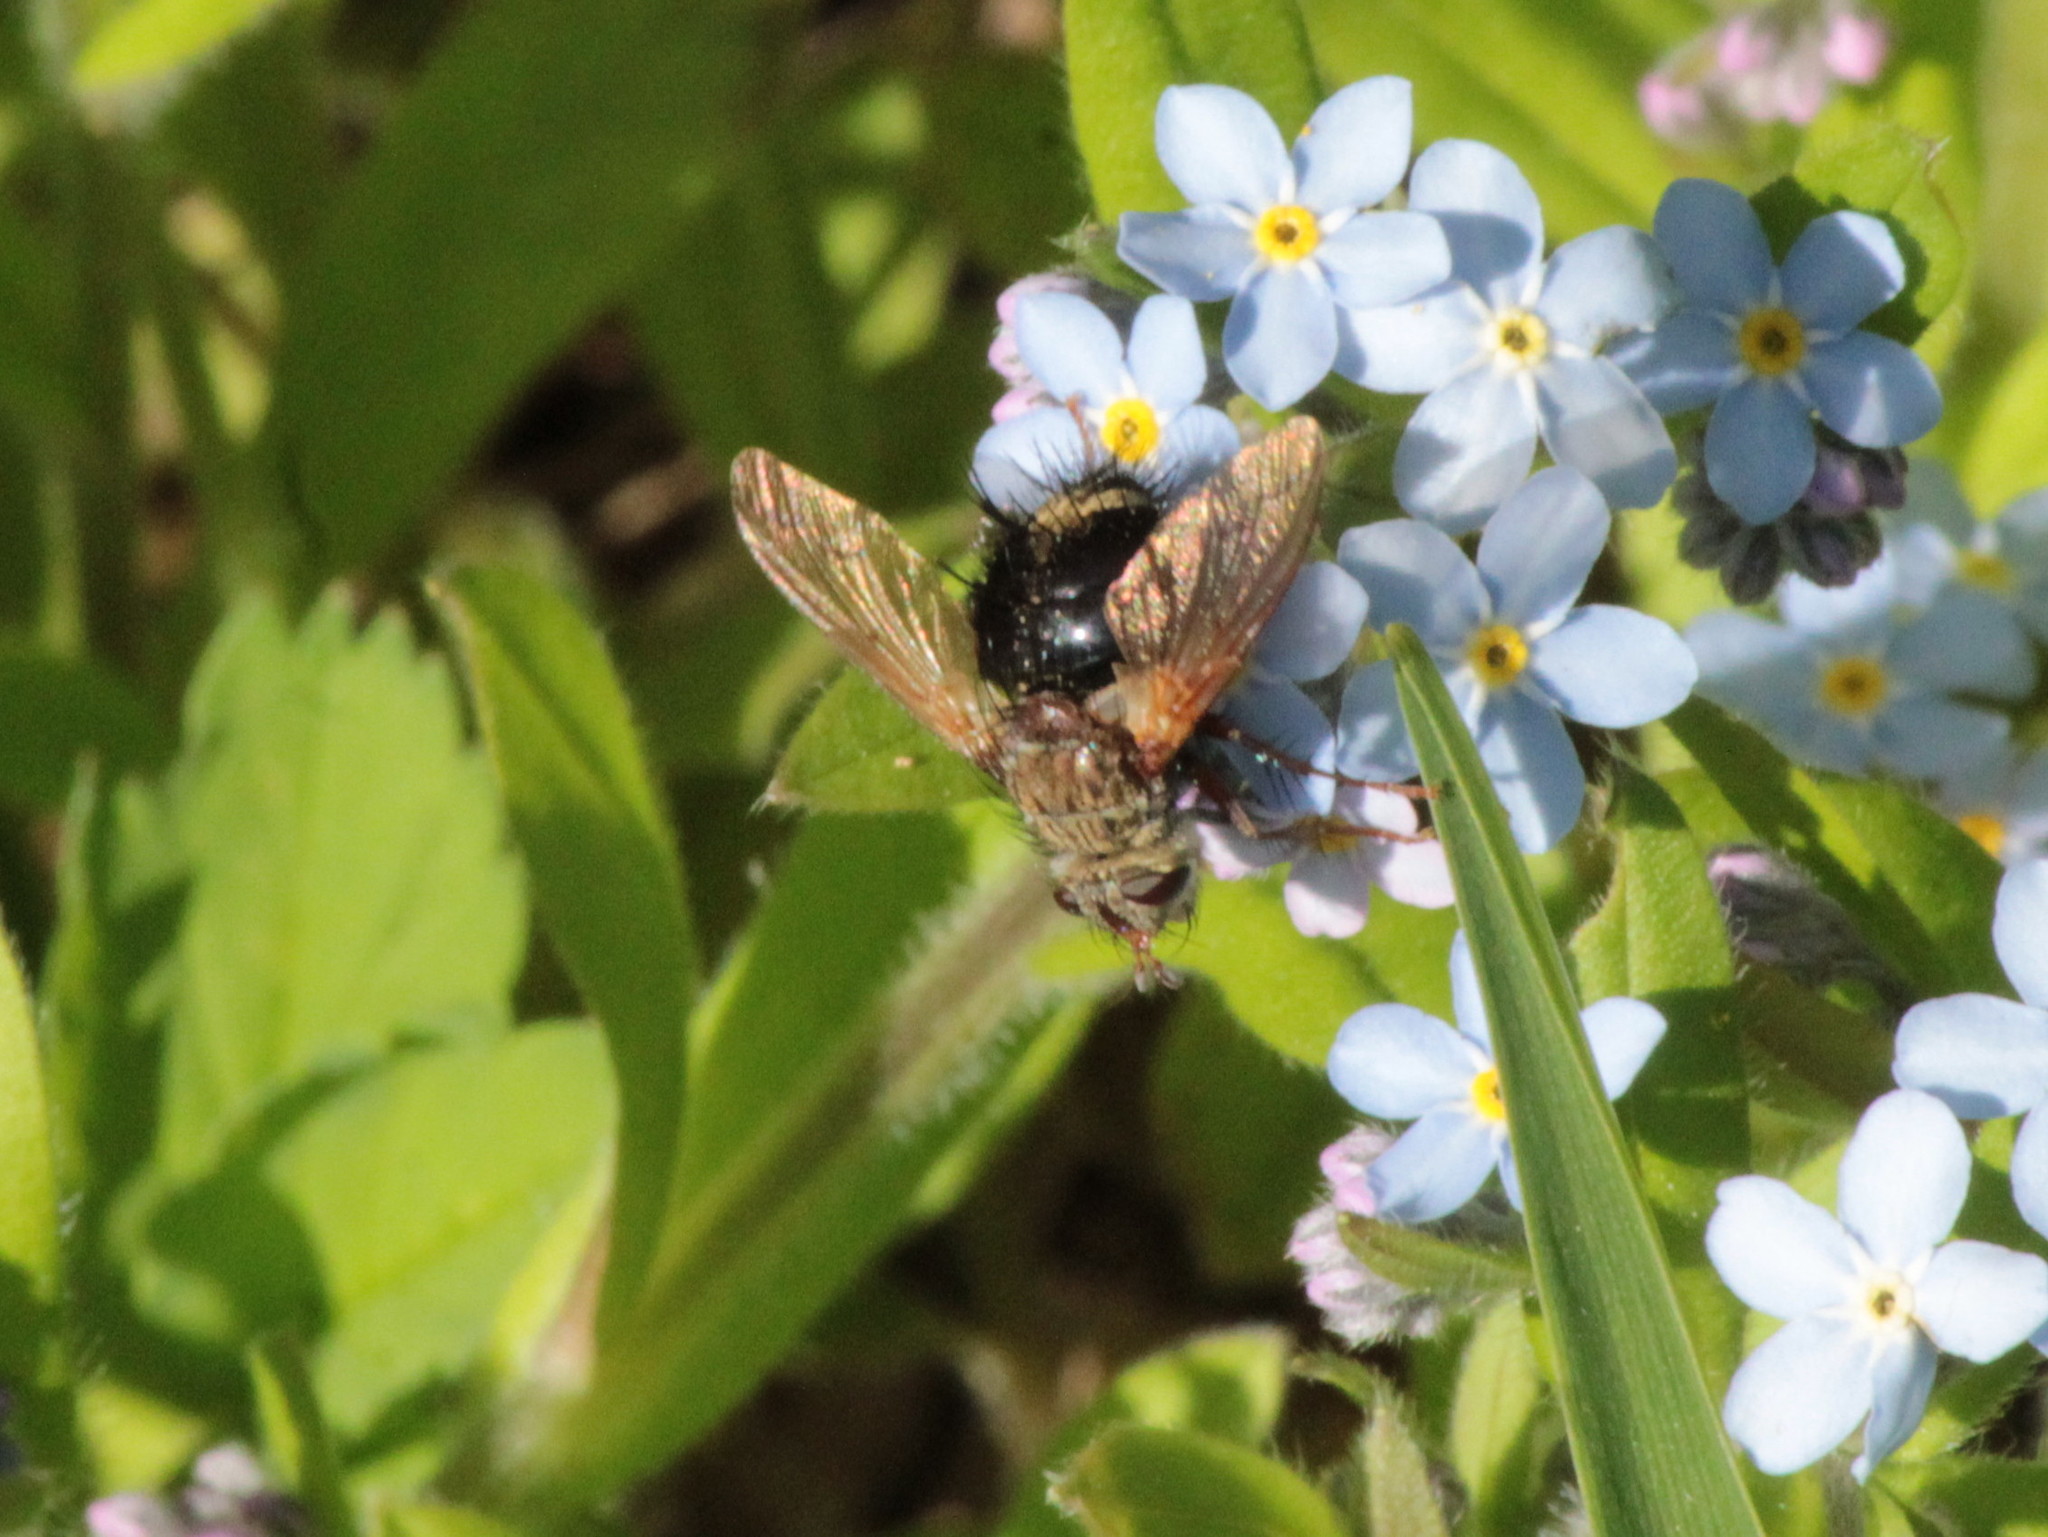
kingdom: Animalia
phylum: Arthropoda
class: Insecta
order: Diptera
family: Tachinidae
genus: Epalpus
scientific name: Epalpus signifer
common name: Early tachinid fly
